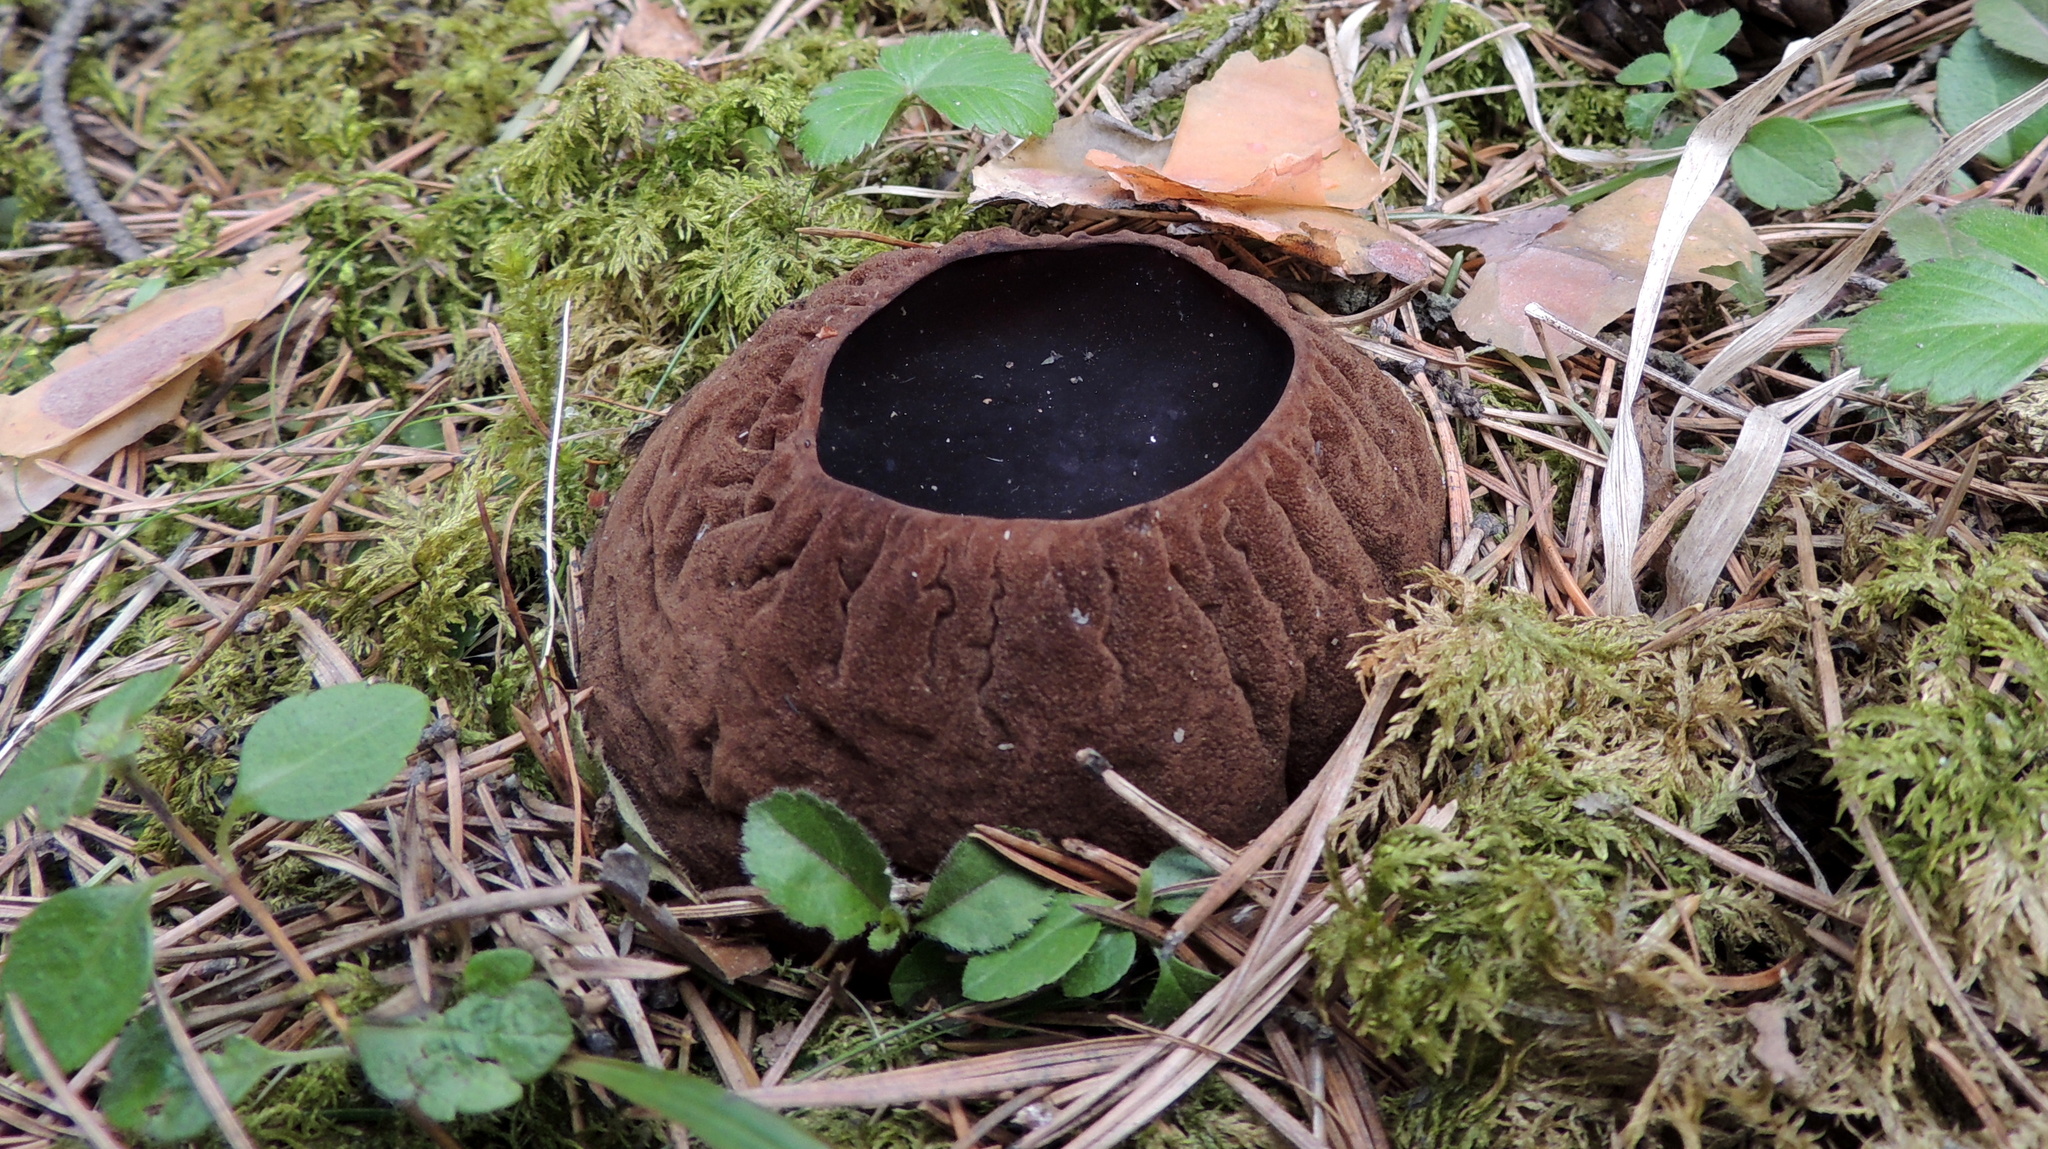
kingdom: Fungi
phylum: Ascomycota
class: Pezizomycetes
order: Pezizales
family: Sarcosomataceae
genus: Sarcosoma
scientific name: Sarcosoma globosum
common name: Charred-pancake cup
